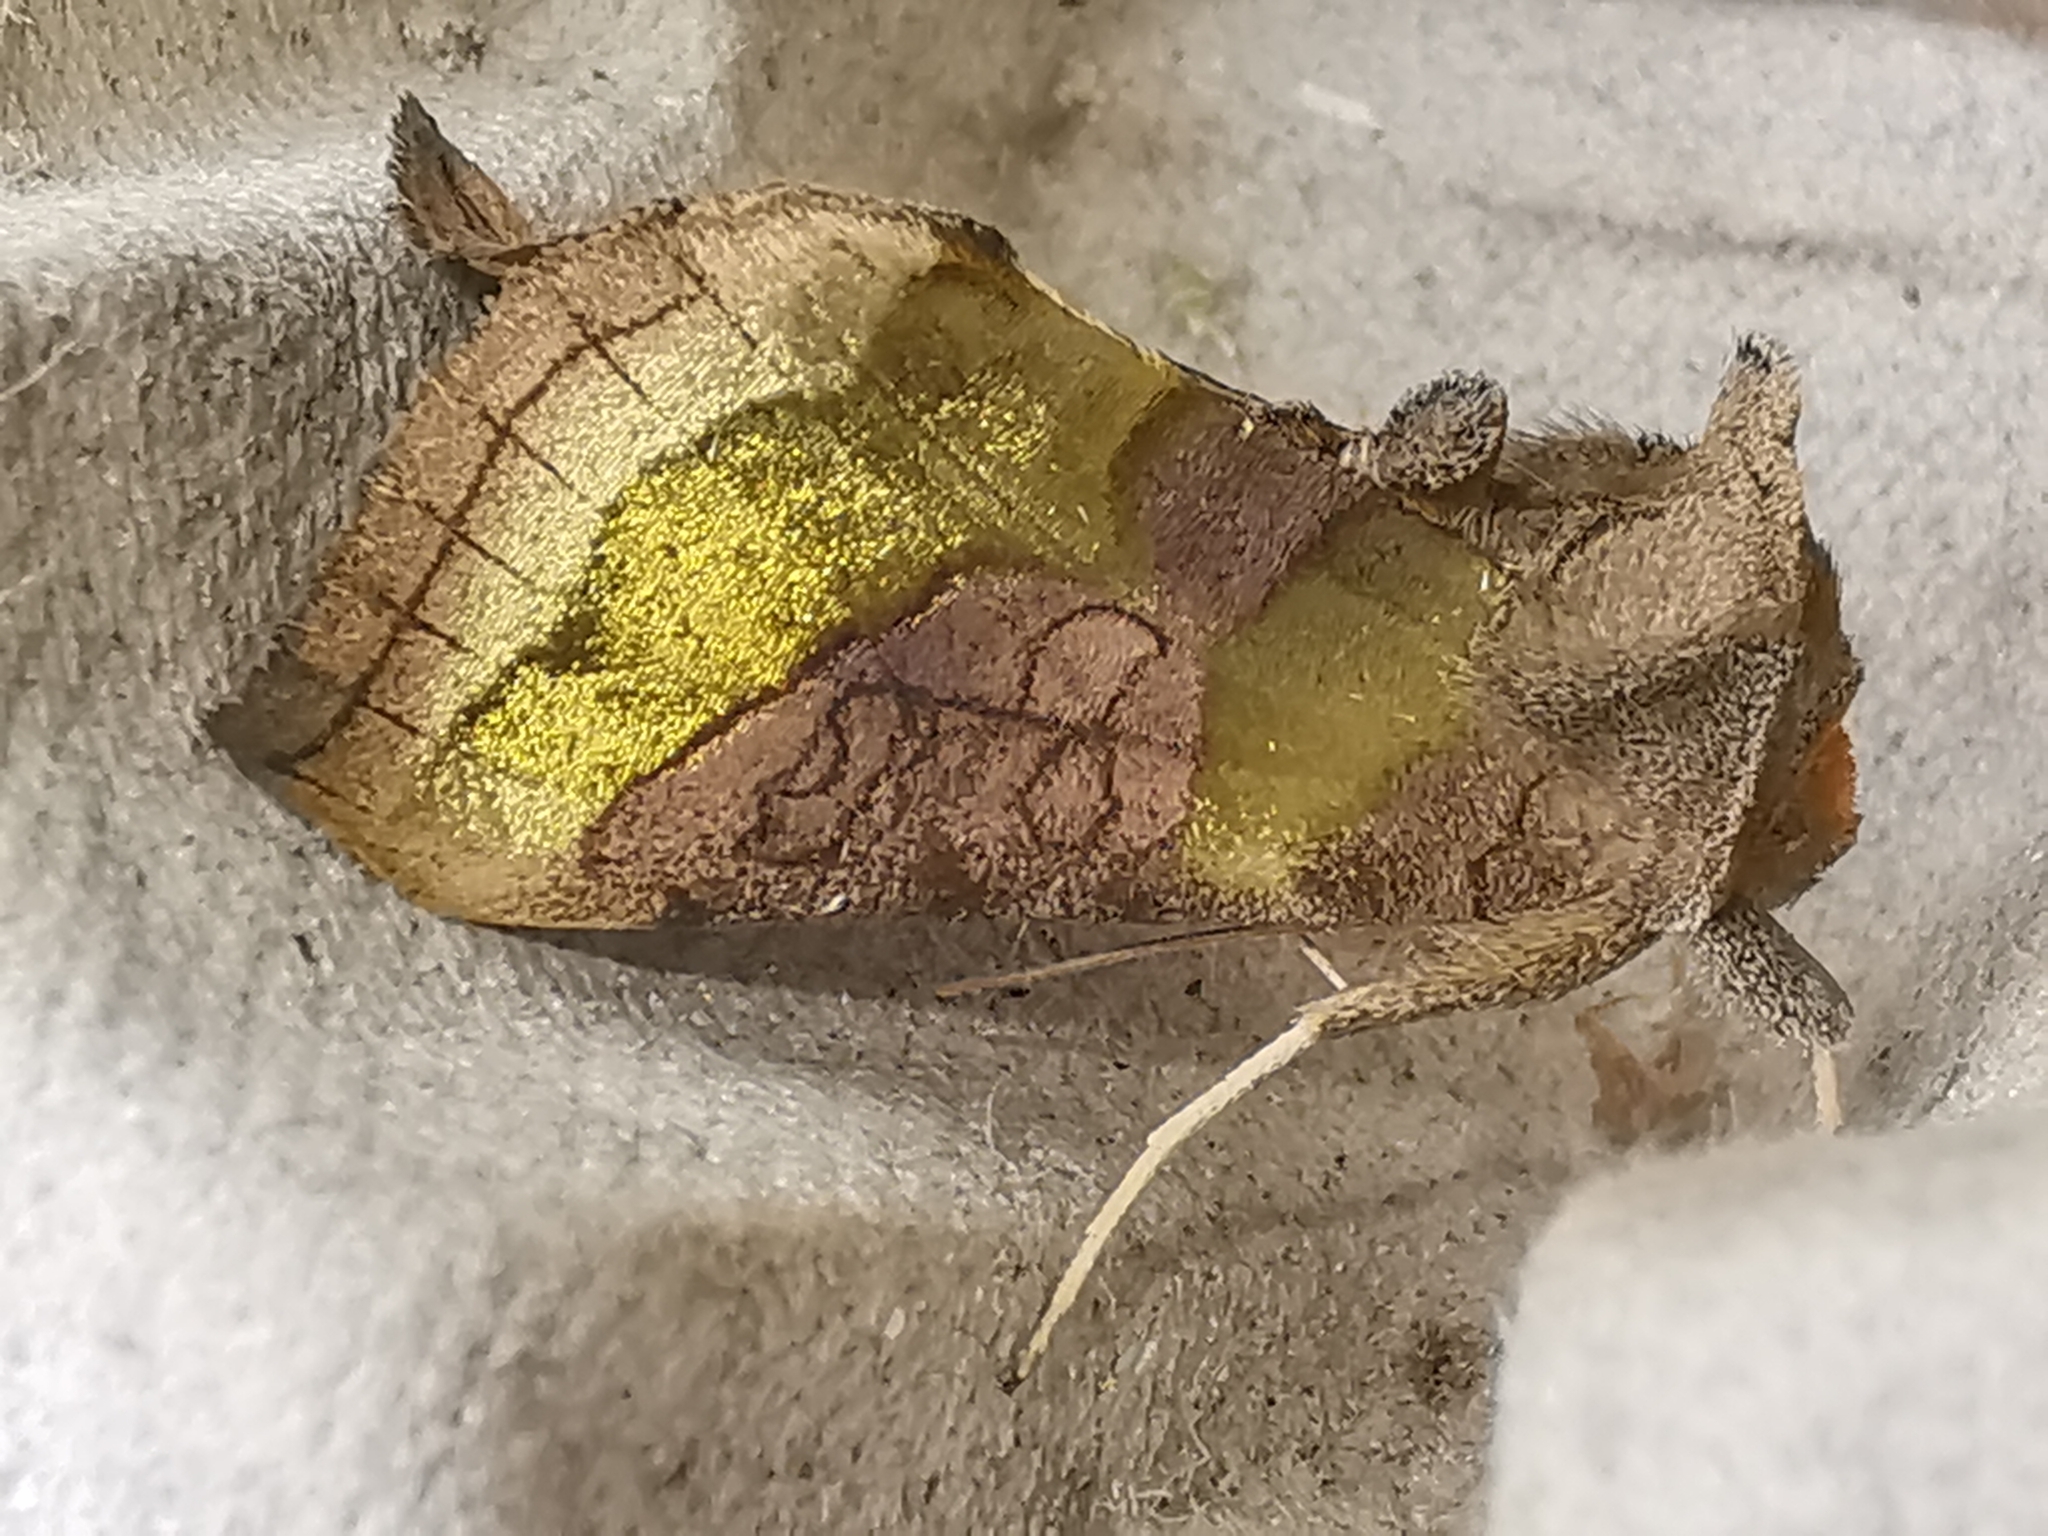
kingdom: Animalia
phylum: Arthropoda
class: Insecta
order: Lepidoptera
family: Noctuidae
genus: Diachrysia
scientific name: Diachrysia chrysitis
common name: Burnished brass
